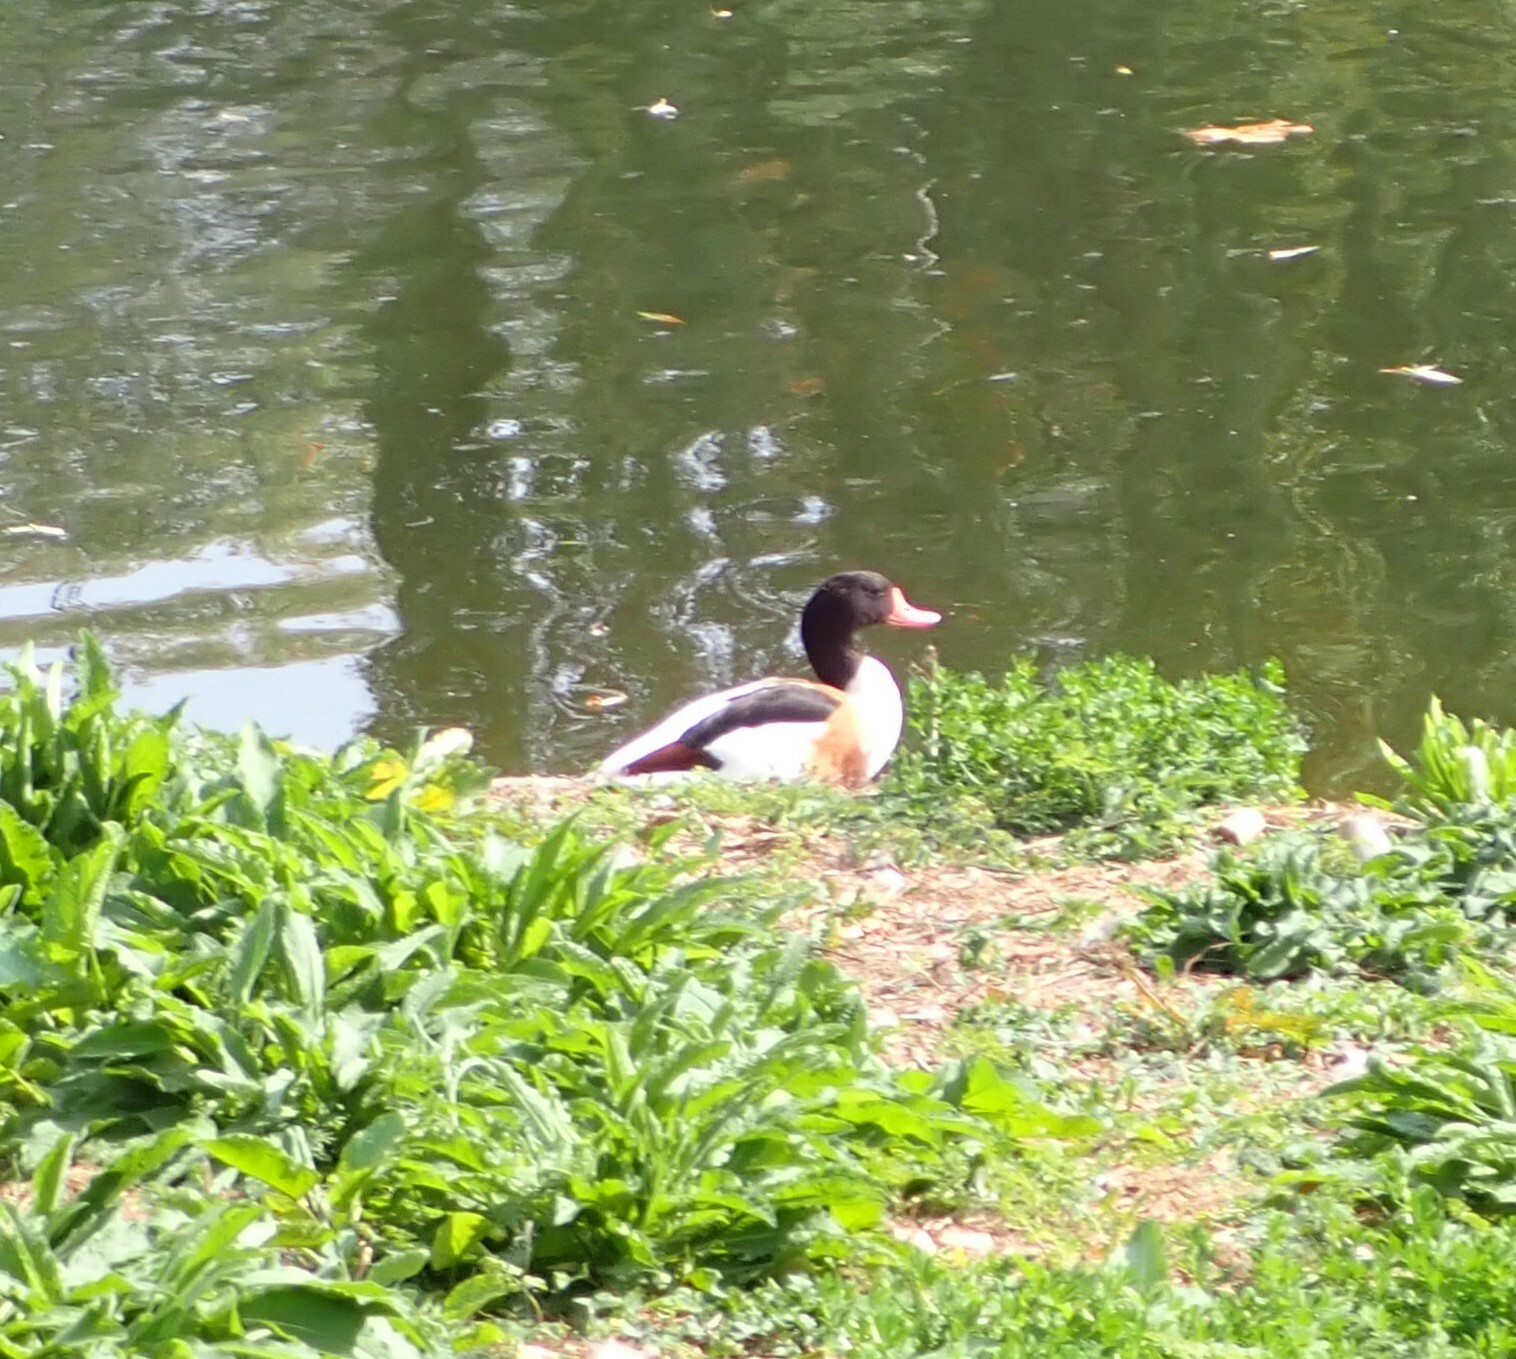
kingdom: Animalia
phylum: Chordata
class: Aves
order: Anseriformes
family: Anatidae
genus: Tadorna
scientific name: Tadorna tadorna
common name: Common shelduck
